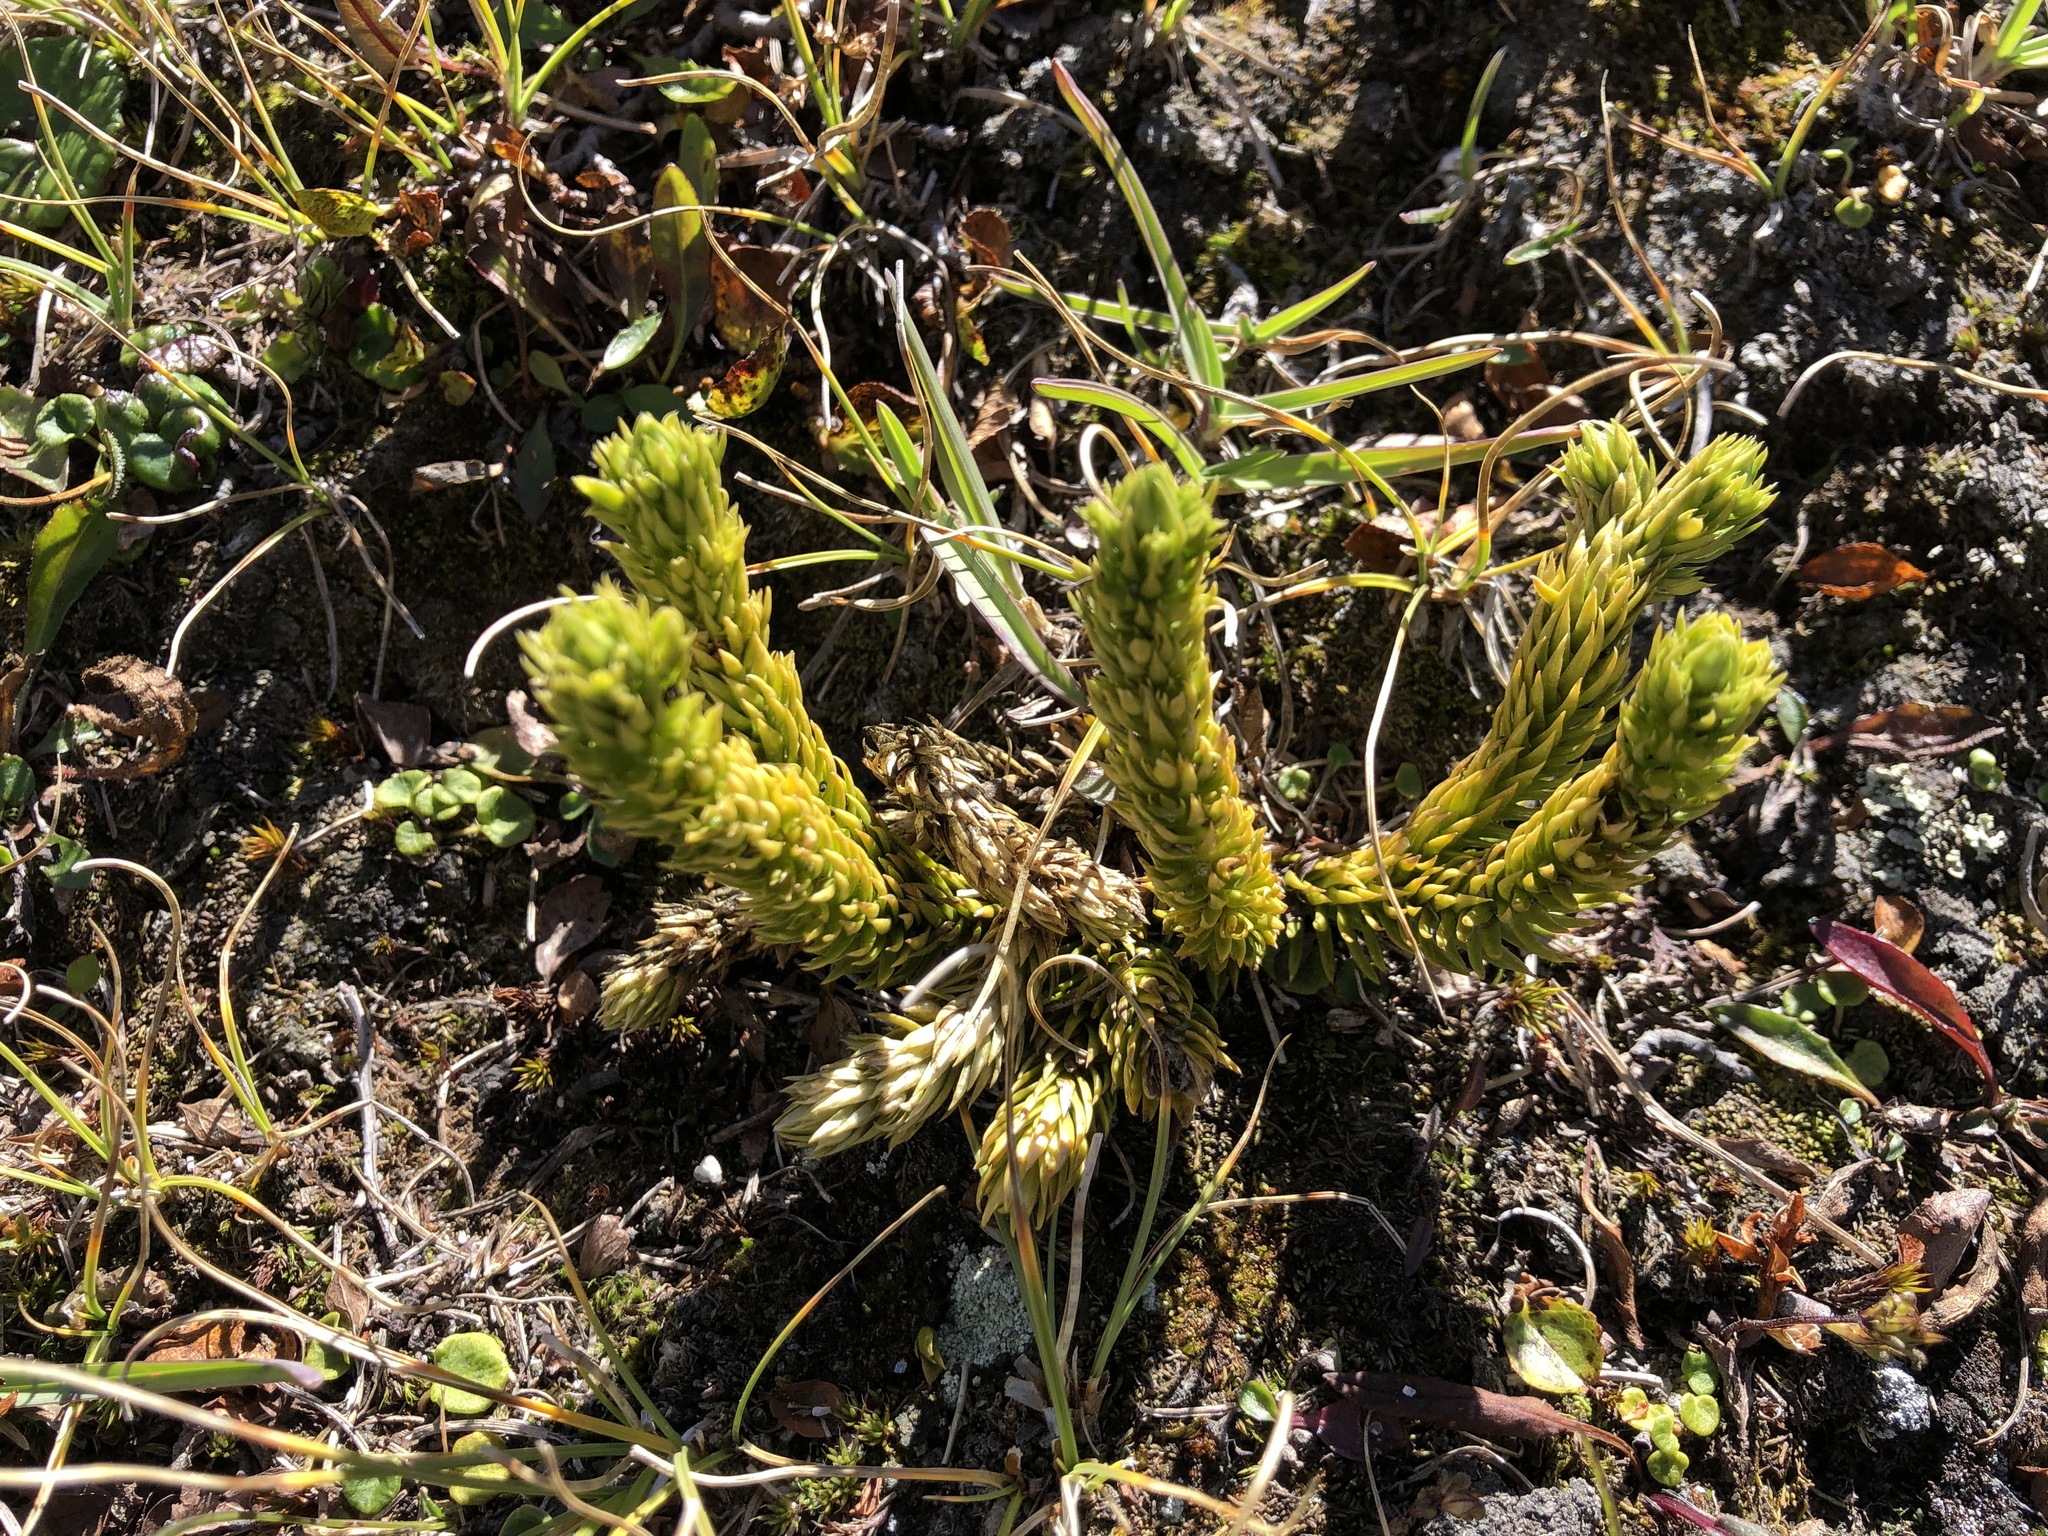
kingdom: Plantae
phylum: Tracheophyta
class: Lycopodiopsida
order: Lycopodiales
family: Lycopodiaceae
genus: Huperzia
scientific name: Huperzia selago
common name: Northern firmoss
